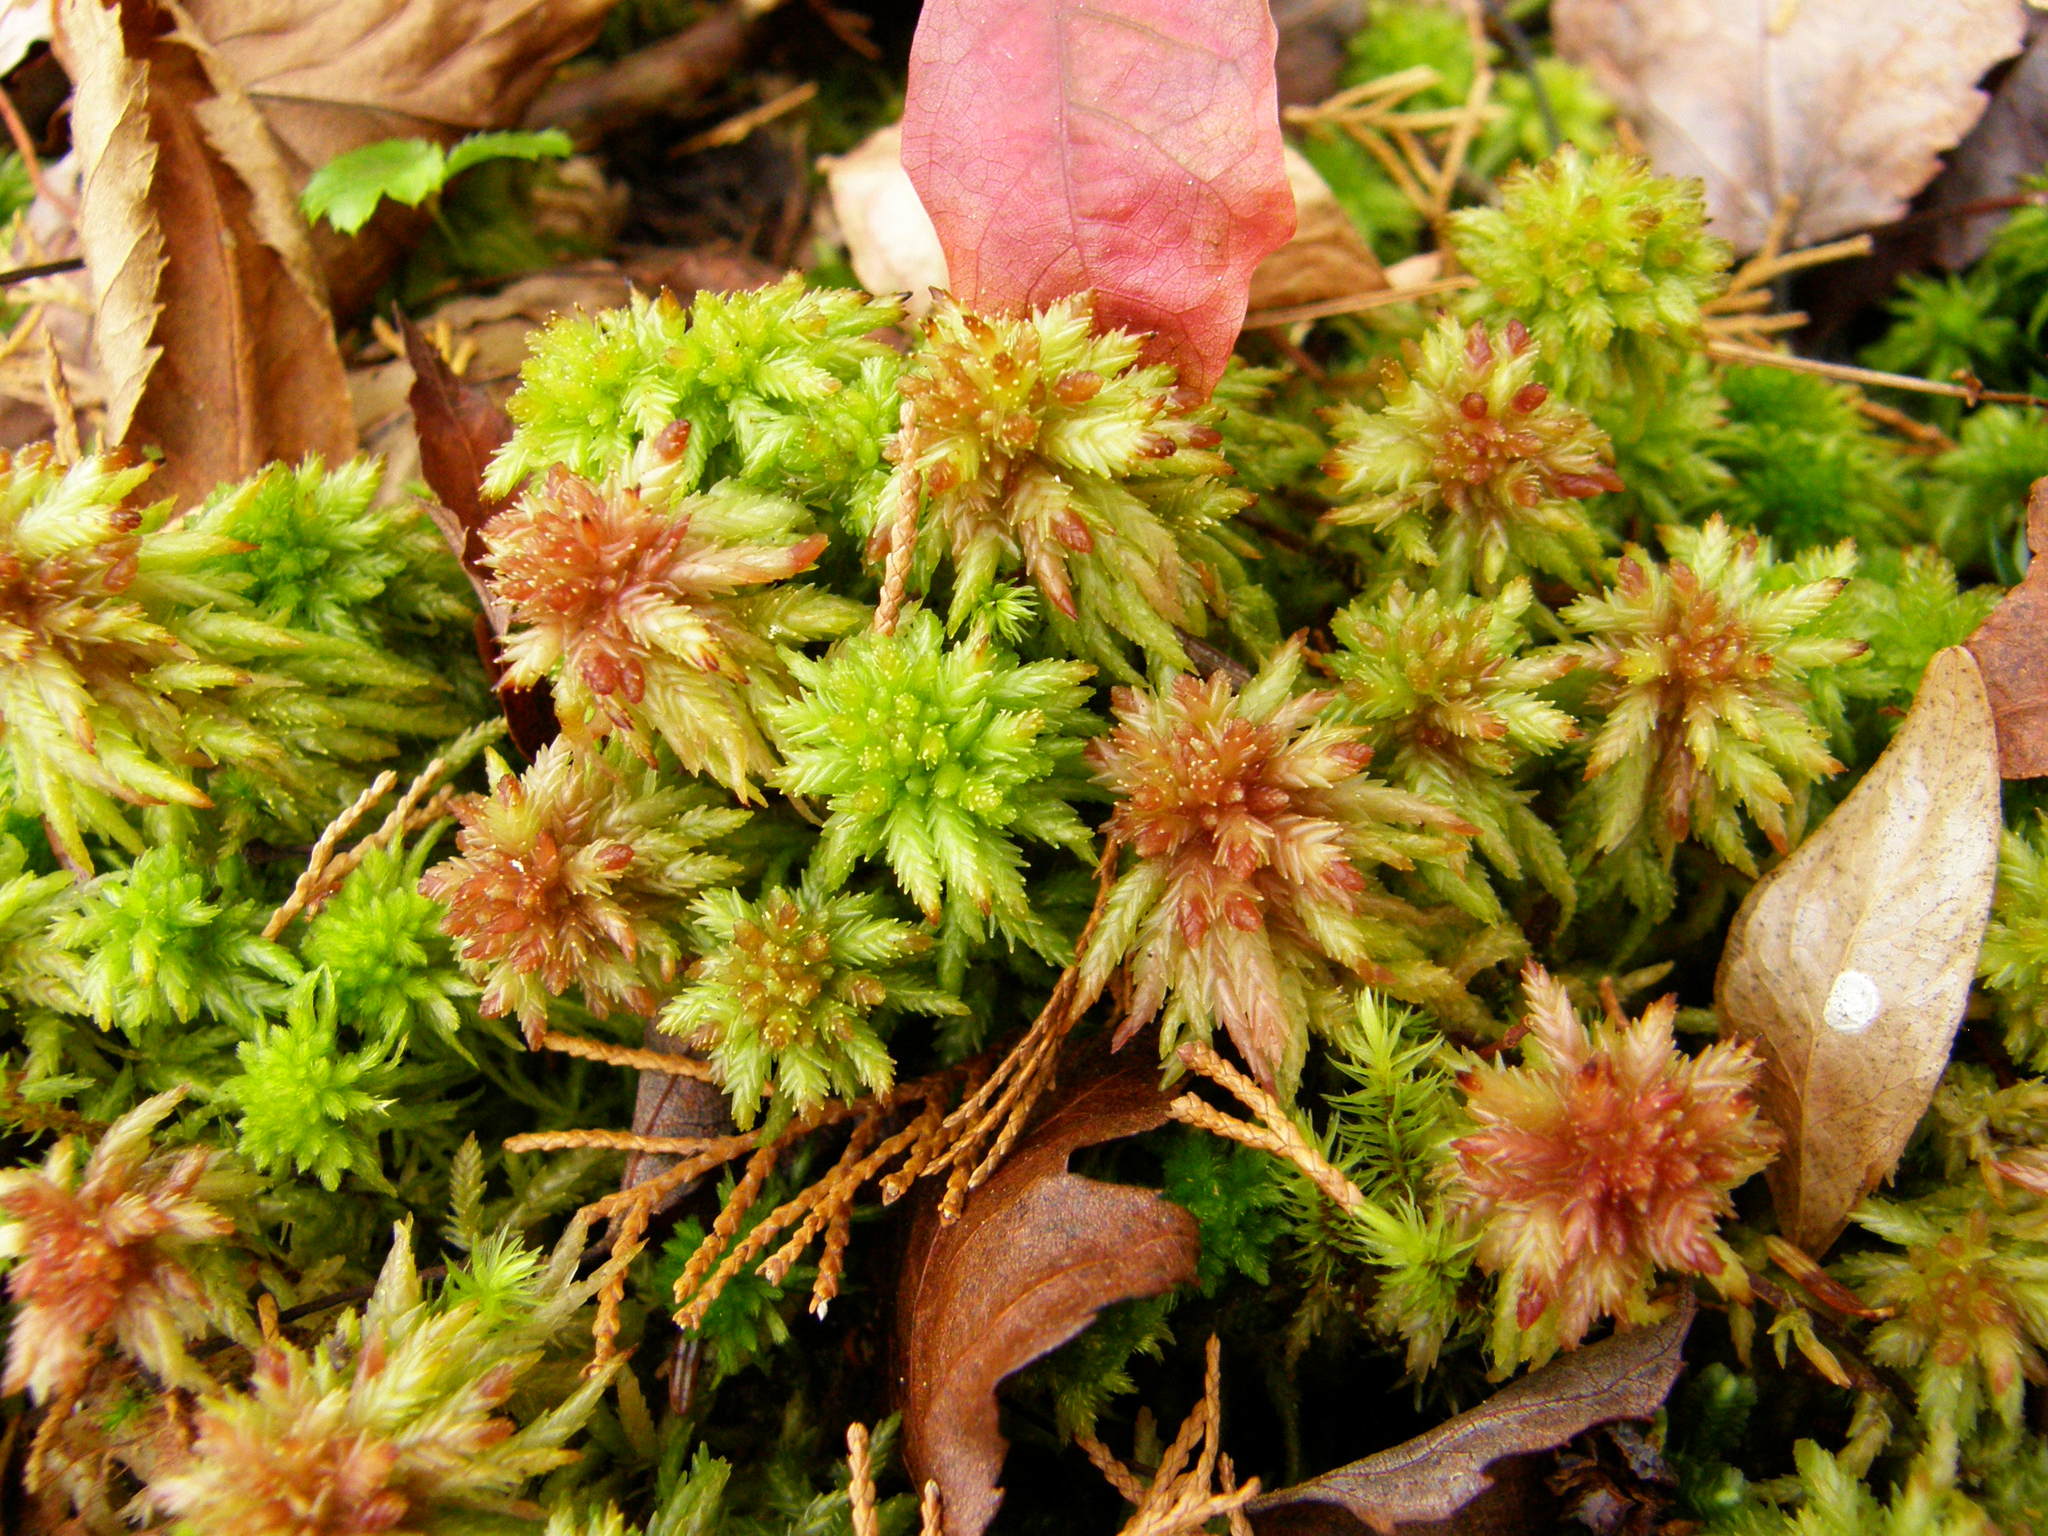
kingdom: Plantae
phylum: Bryophyta
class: Sphagnopsida
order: Sphagnales
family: Sphagnaceae
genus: Sphagnum
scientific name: Sphagnum palustre
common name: Blunt-leaved bog-moss
